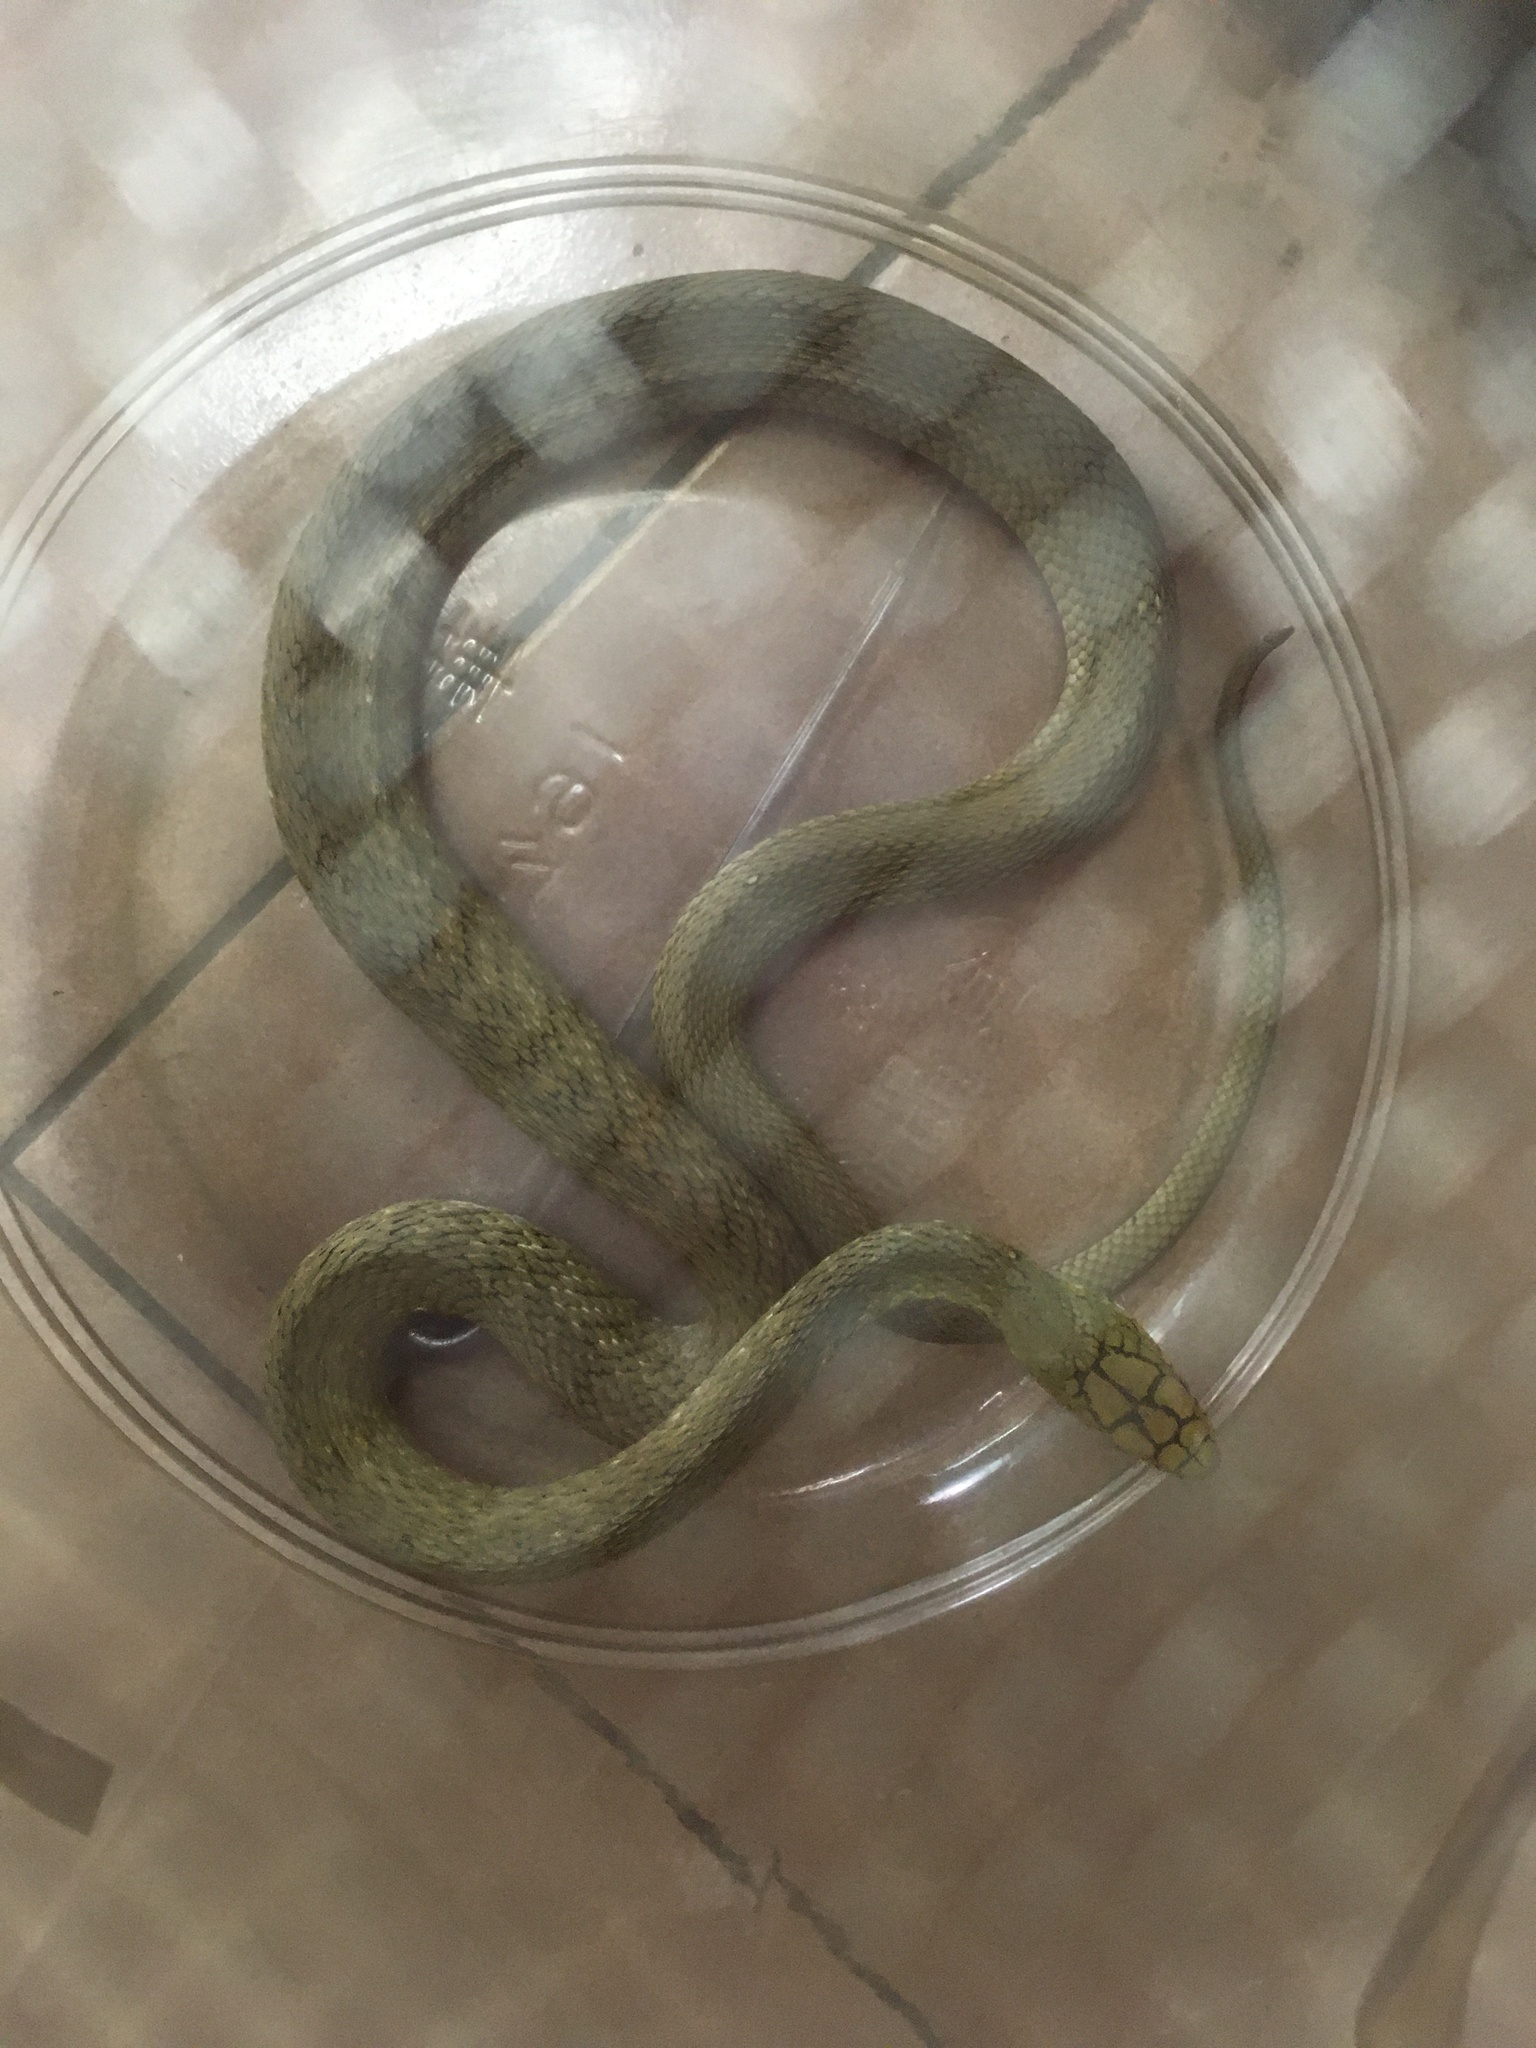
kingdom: Animalia
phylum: Chordata
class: Squamata
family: Colubridae
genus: Elaphe
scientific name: Elaphe carinata
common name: Taiwan stink snake
